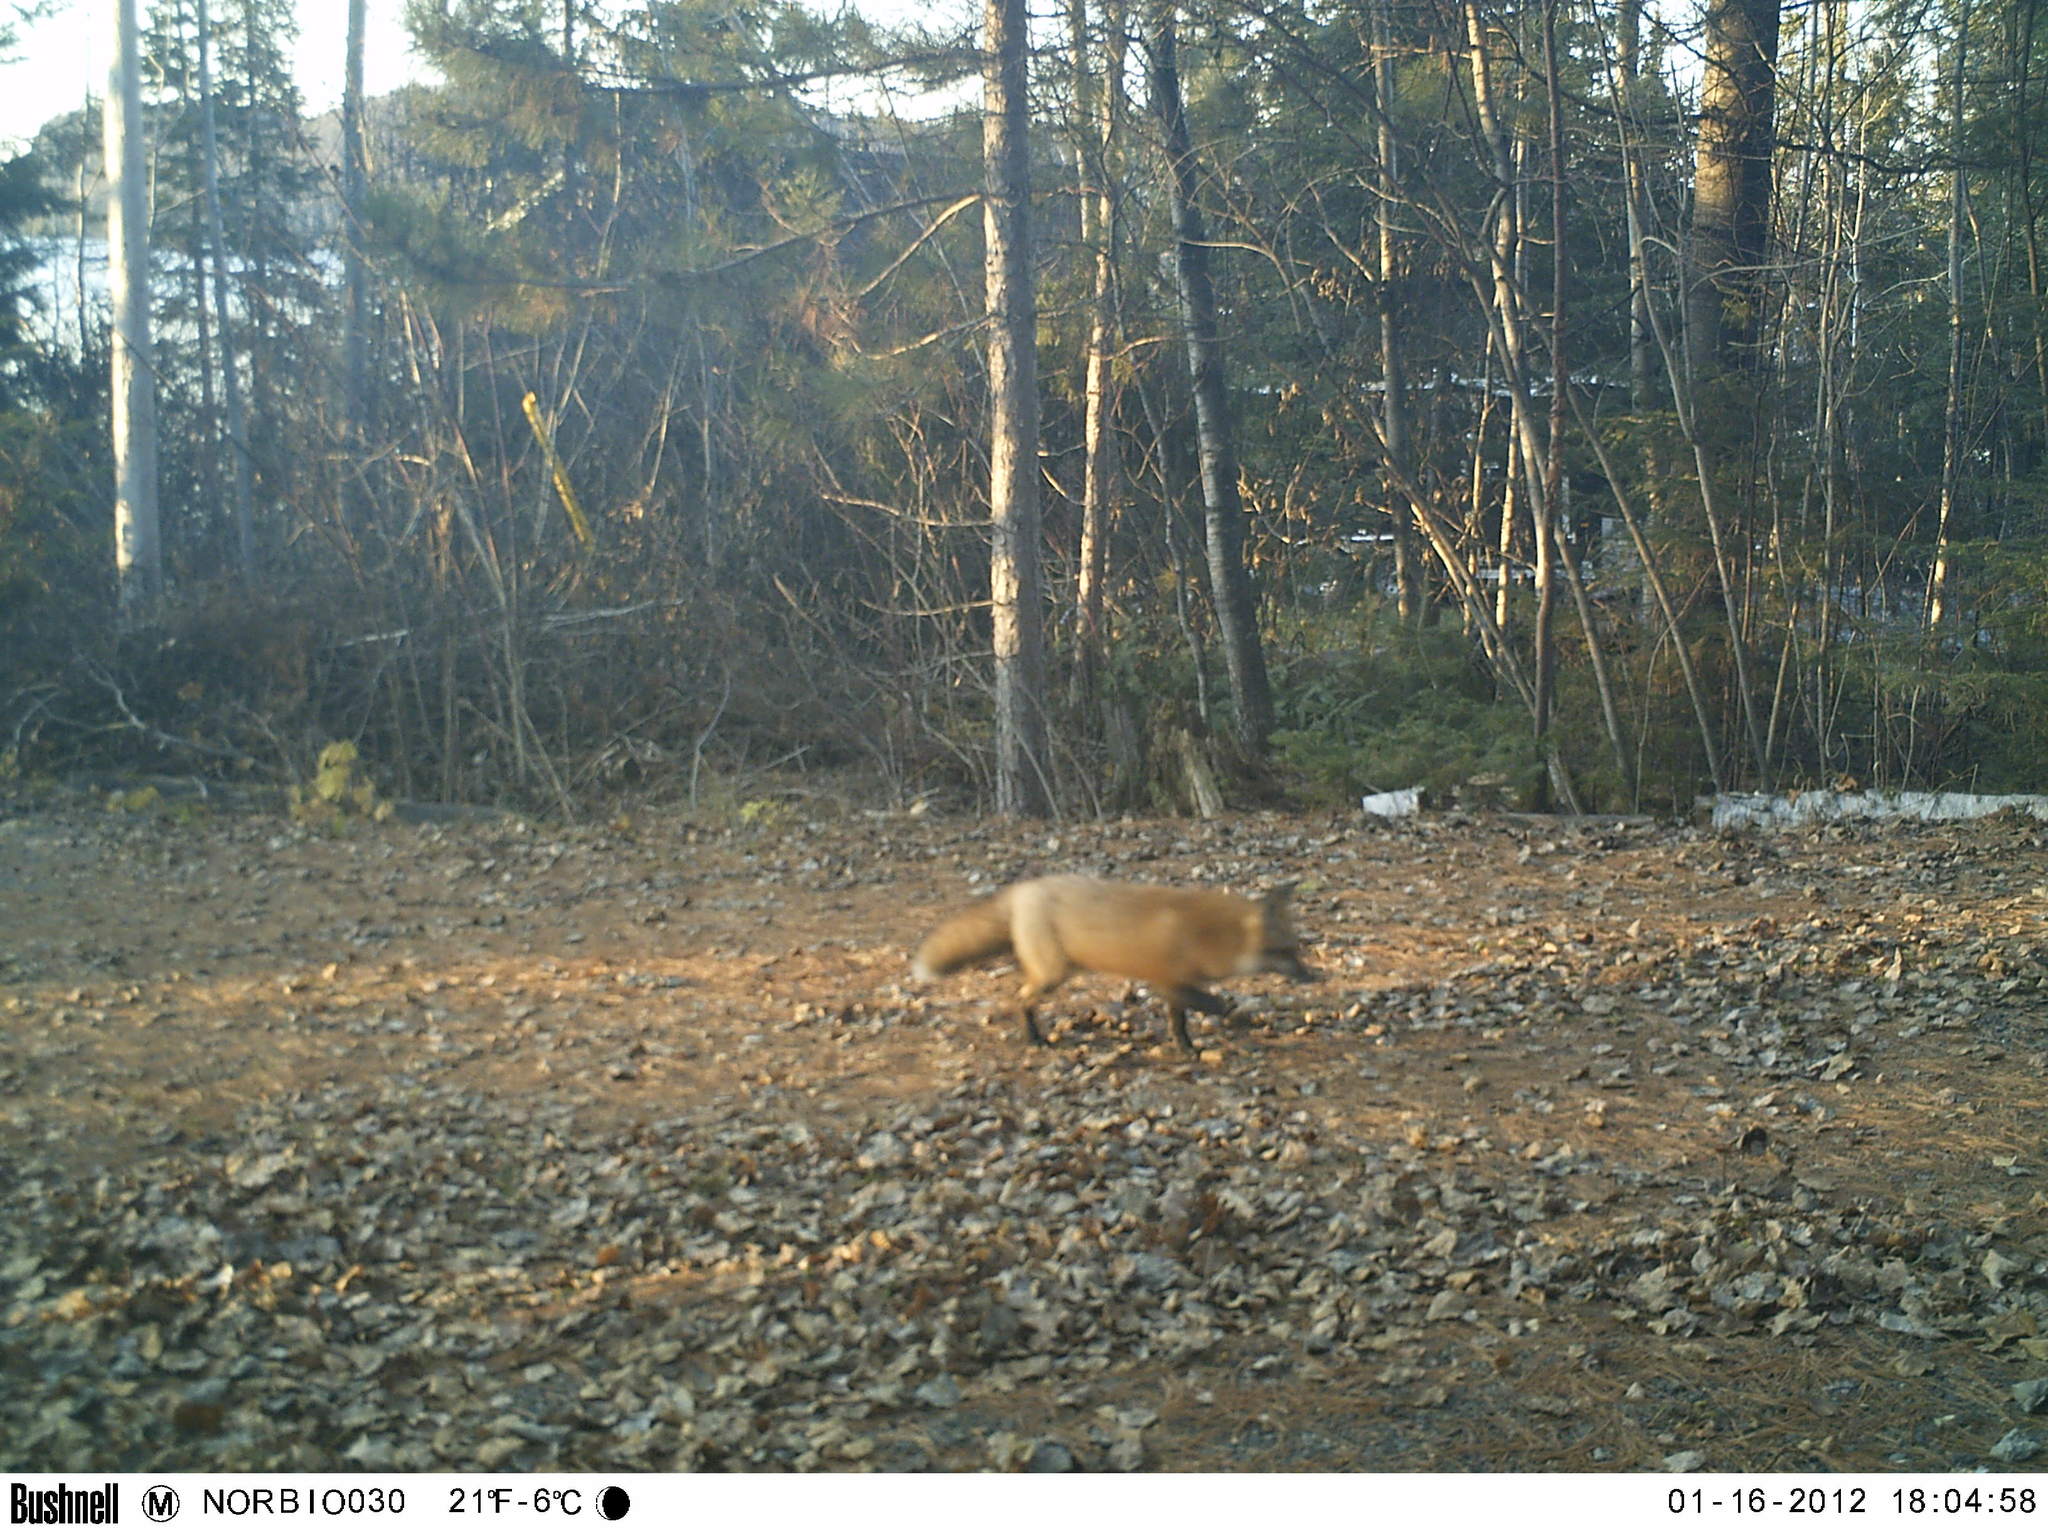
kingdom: Animalia
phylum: Chordata
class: Mammalia
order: Carnivora
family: Canidae
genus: Vulpes
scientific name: Vulpes vulpes
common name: Red fox
